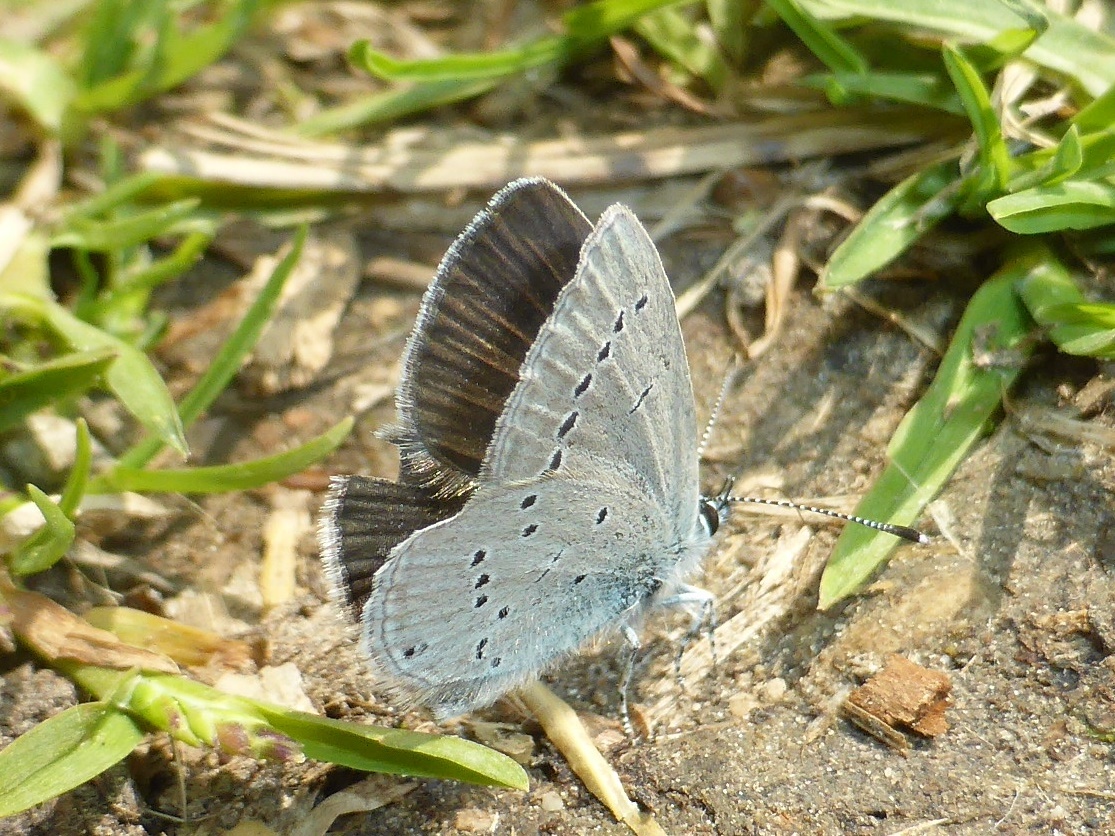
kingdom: Animalia
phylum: Arthropoda
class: Insecta
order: Lepidoptera
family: Lycaenidae
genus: Cupido
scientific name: Cupido minimus
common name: Small blue
